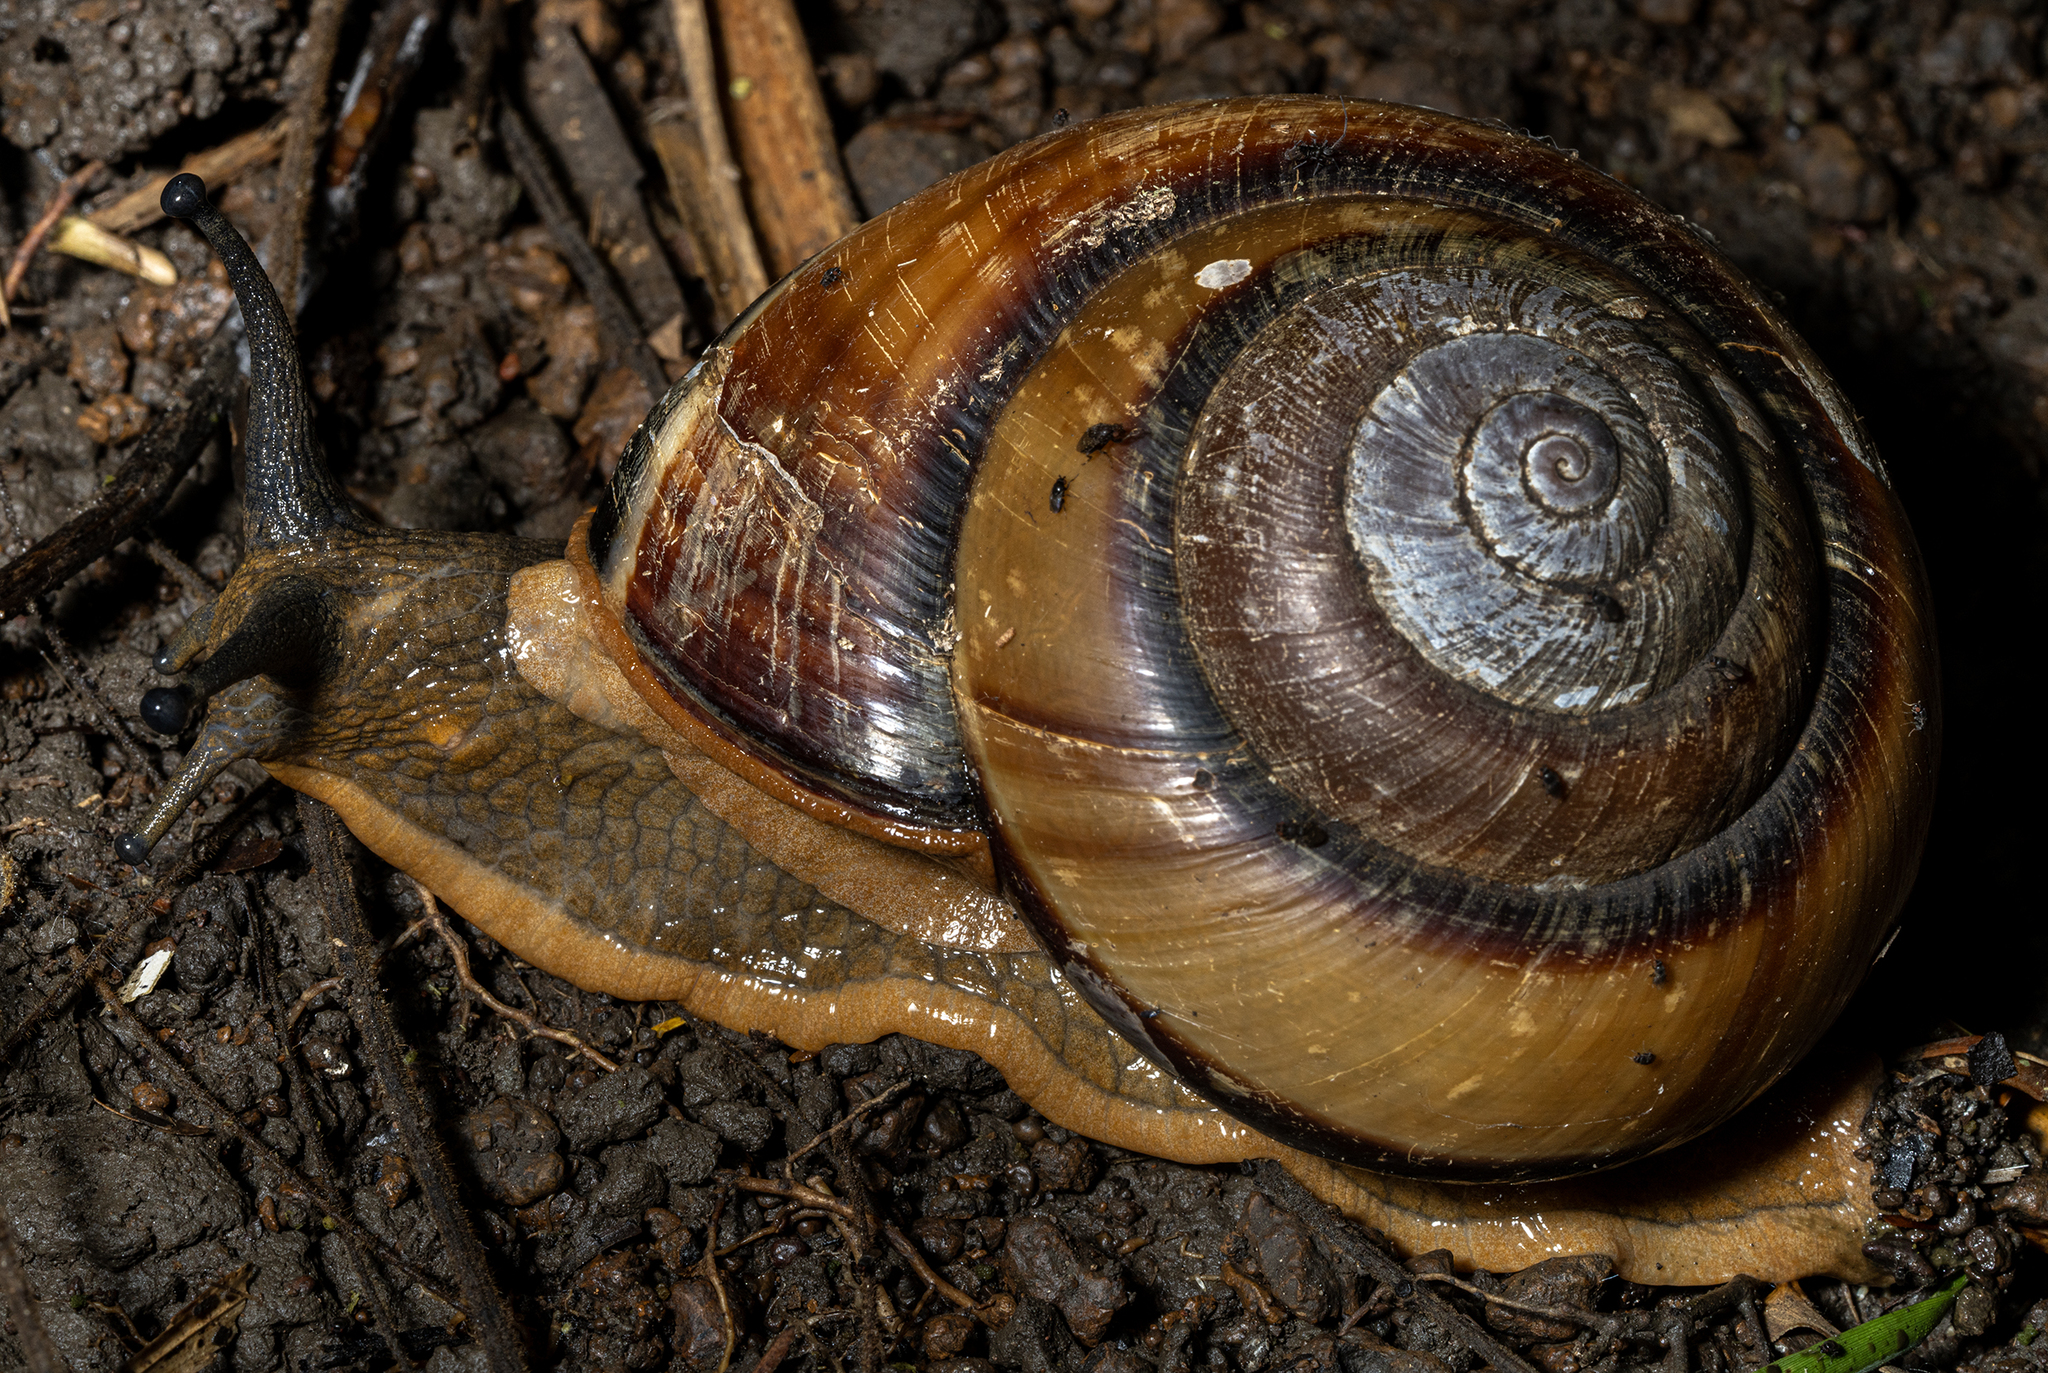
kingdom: Animalia
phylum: Mollusca
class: Gastropoda
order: Stylommatophora
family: Dyakiidae
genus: Bertia
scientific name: Bertia cambojiensis
